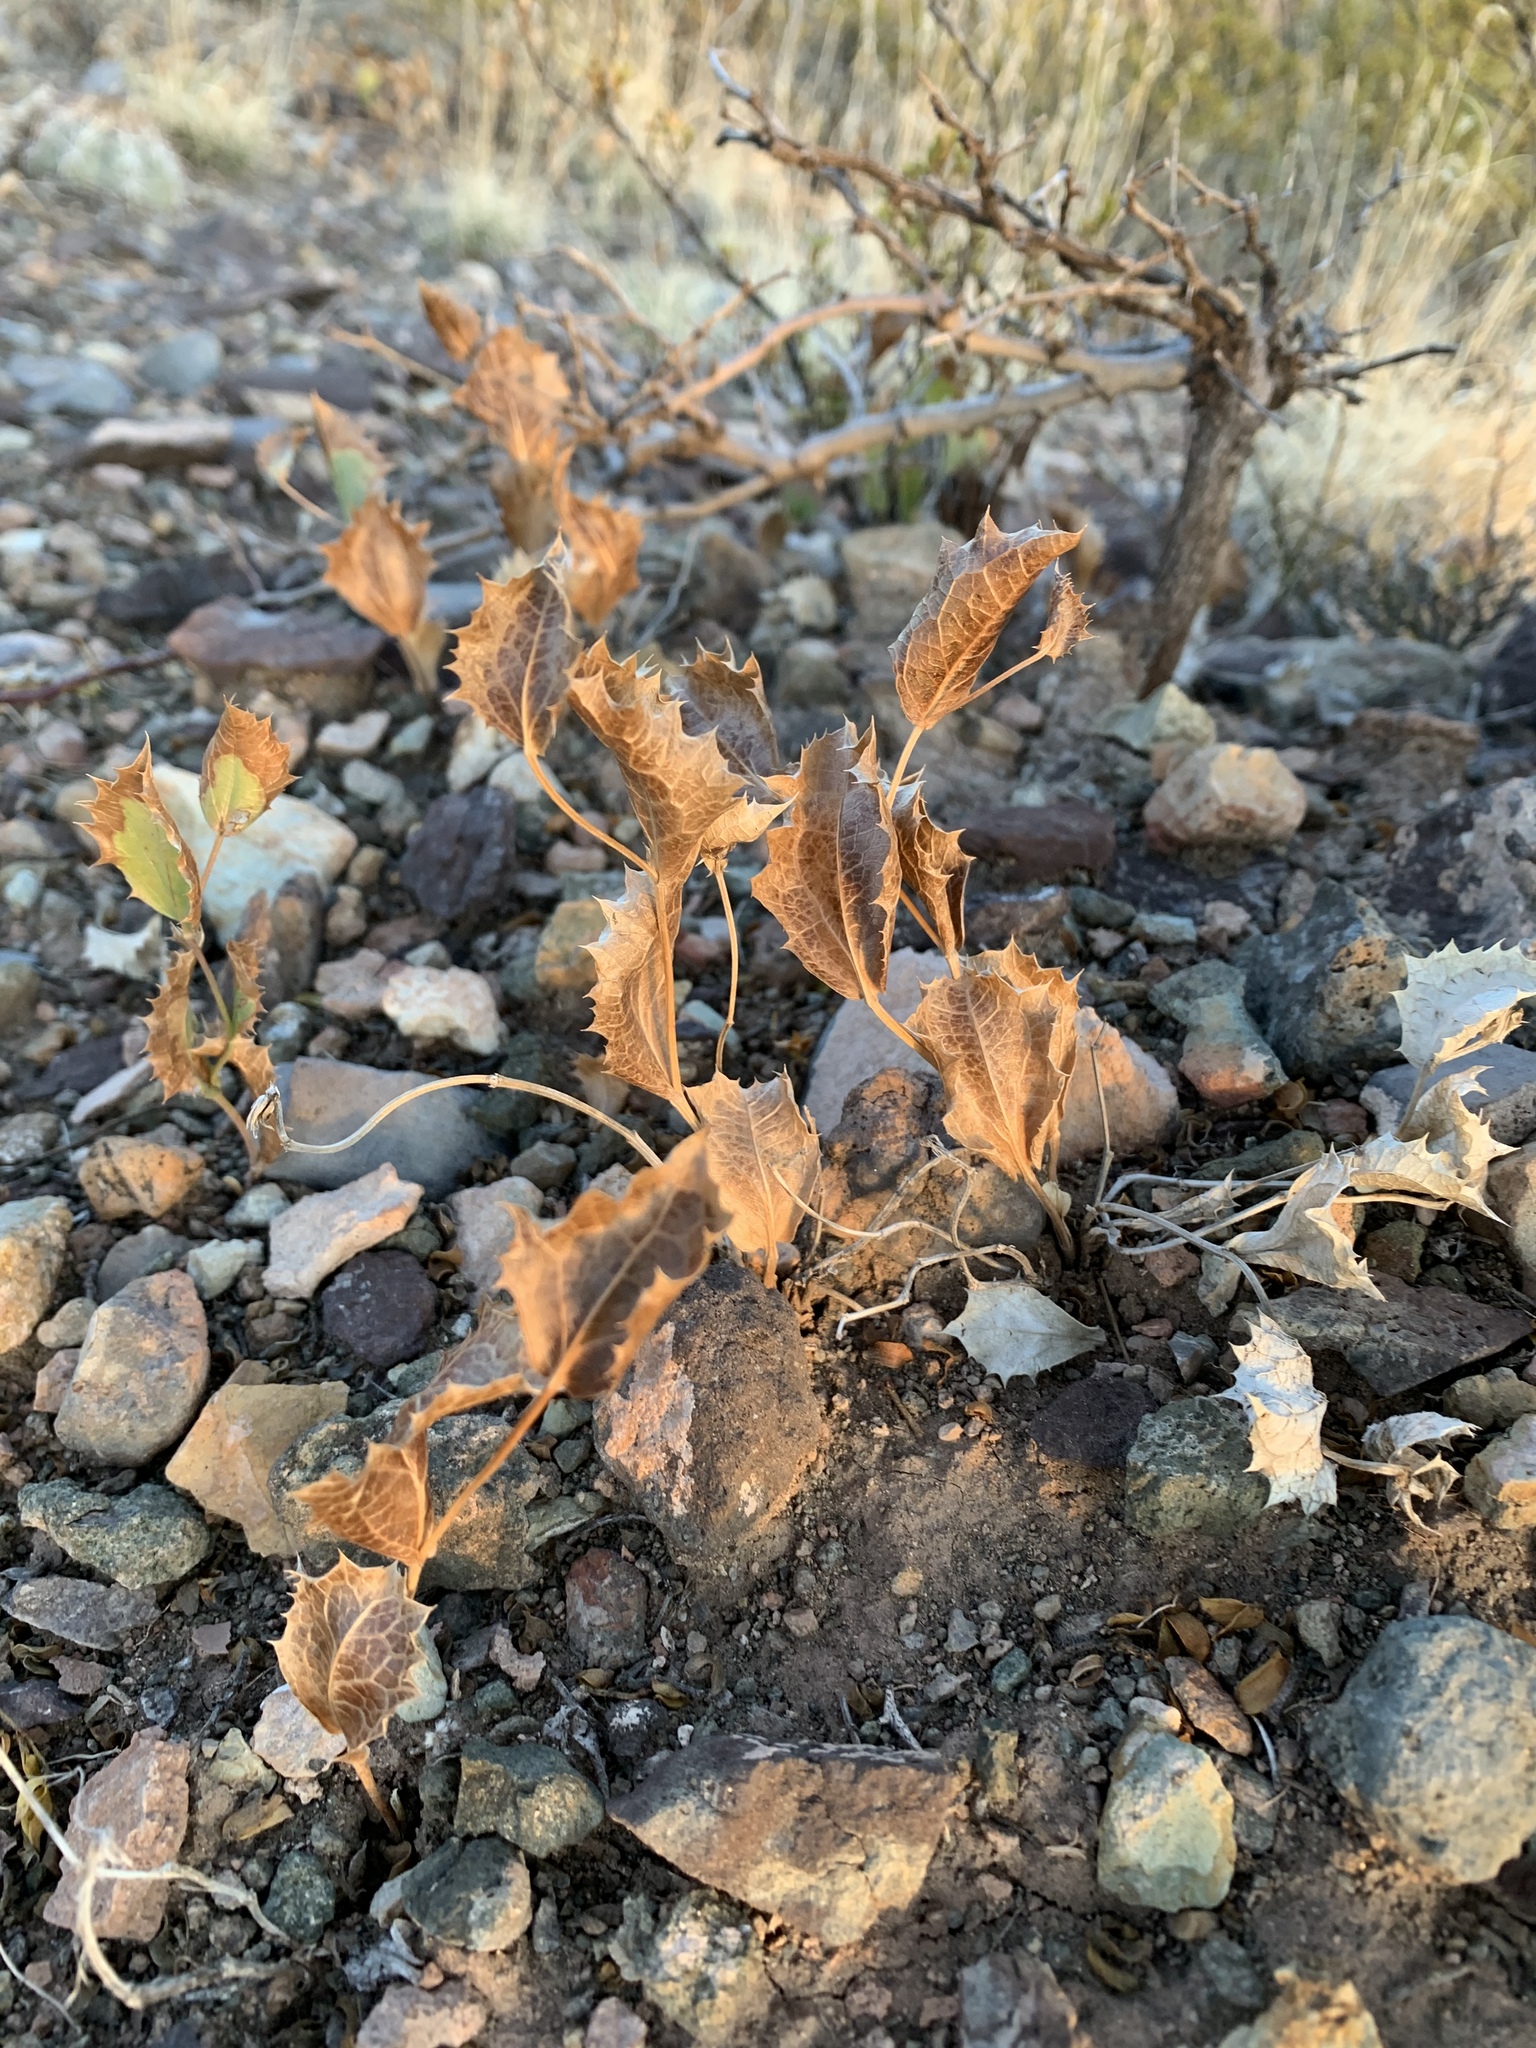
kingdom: Plantae
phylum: Tracheophyta
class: Magnoliopsida
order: Asterales
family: Asteraceae
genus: Acourtia
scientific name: Acourtia nana
